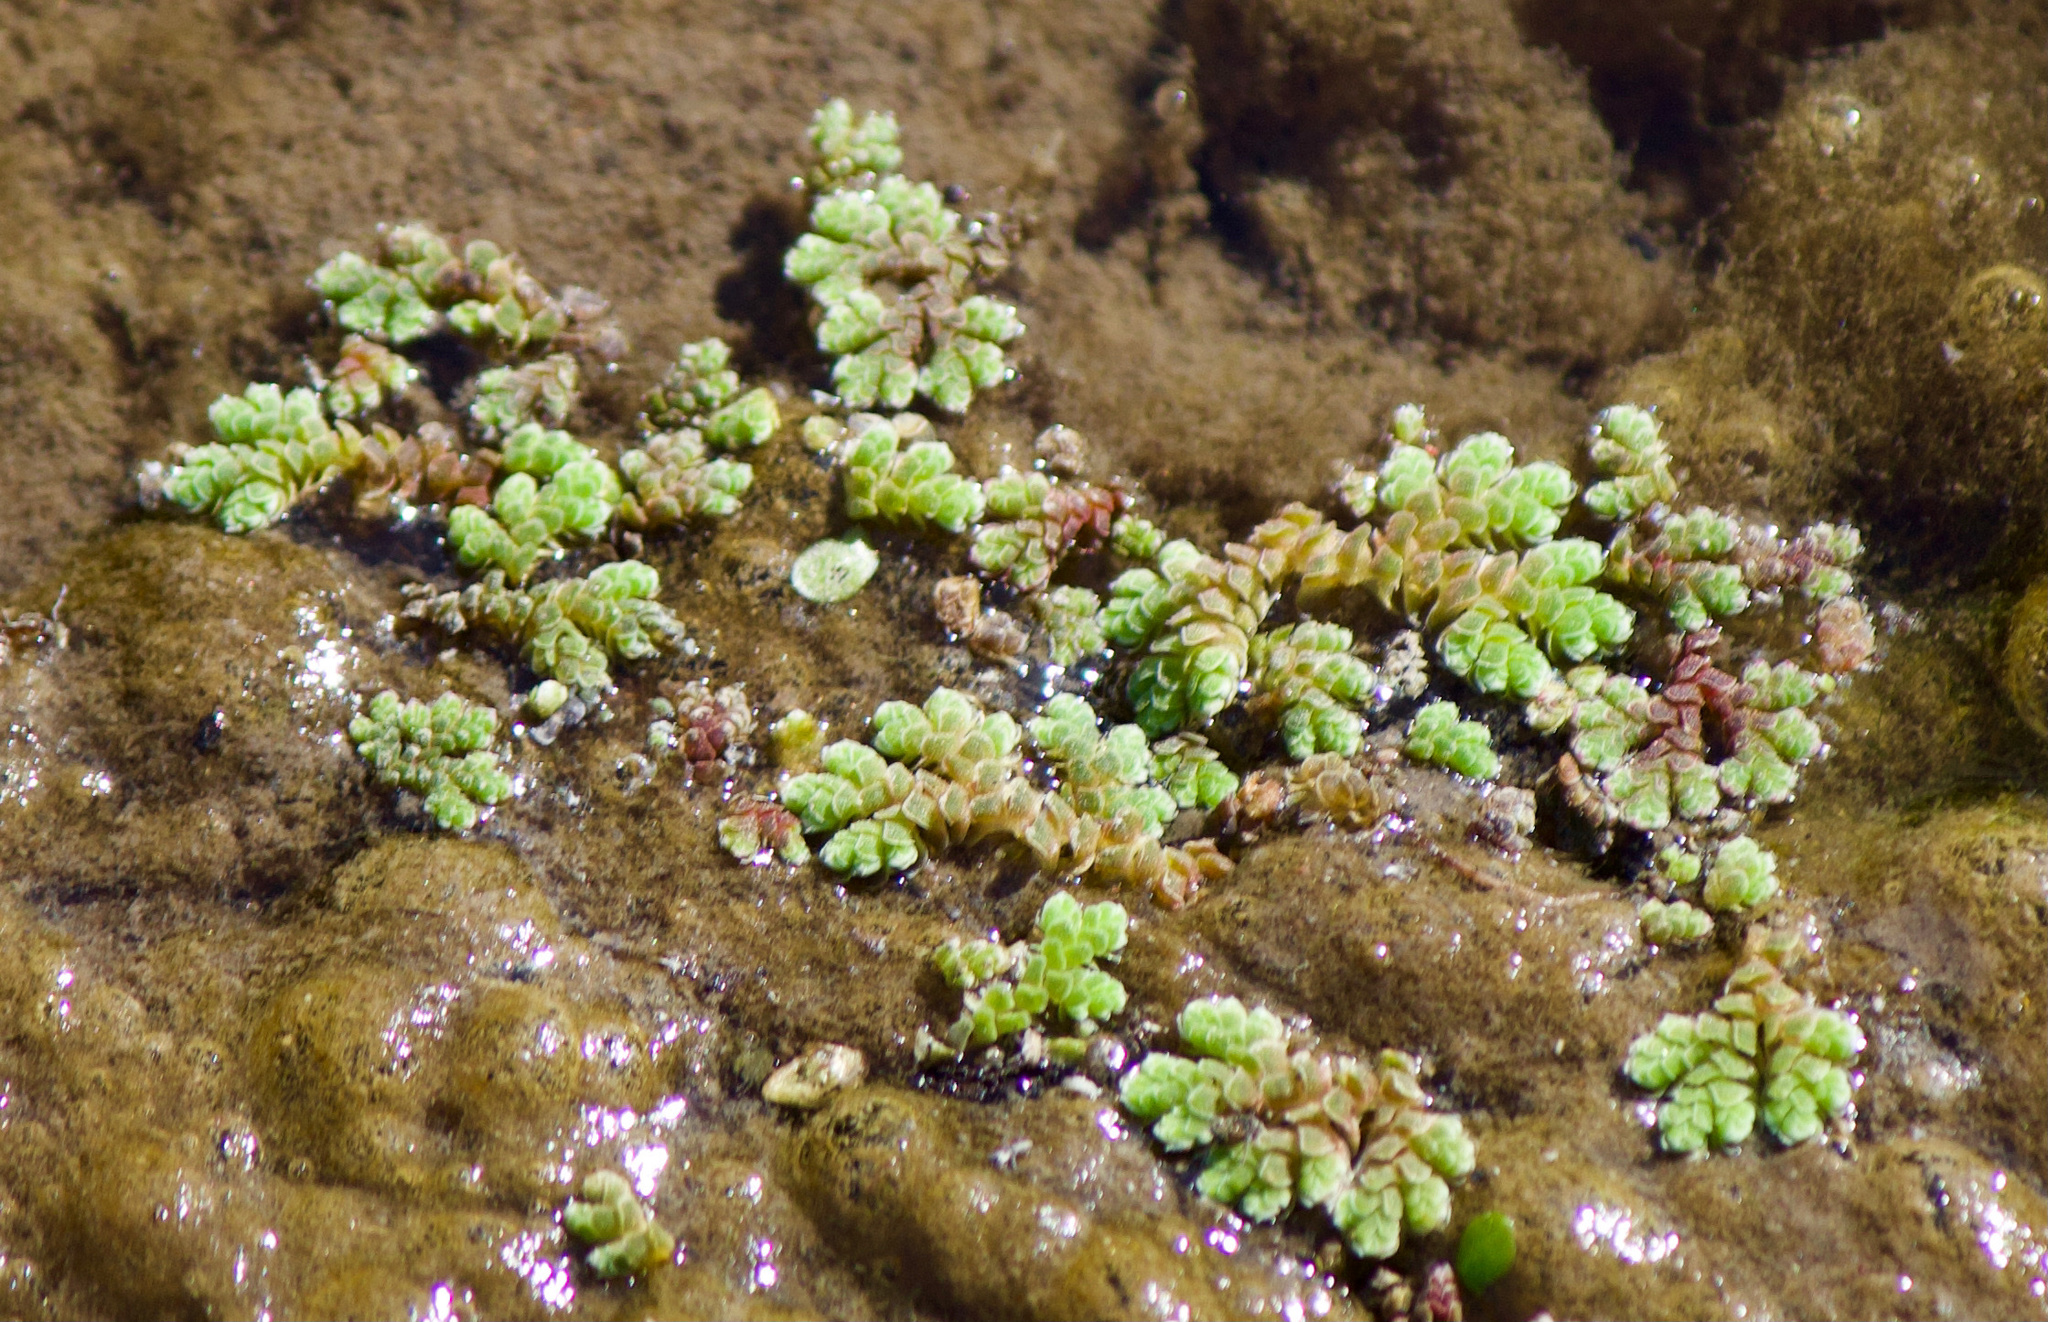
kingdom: Plantae
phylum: Tracheophyta
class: Polypodiopsida
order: Salviniales
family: Salviniaceae
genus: Azolla
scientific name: Azolla filiculoides
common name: Water fern
